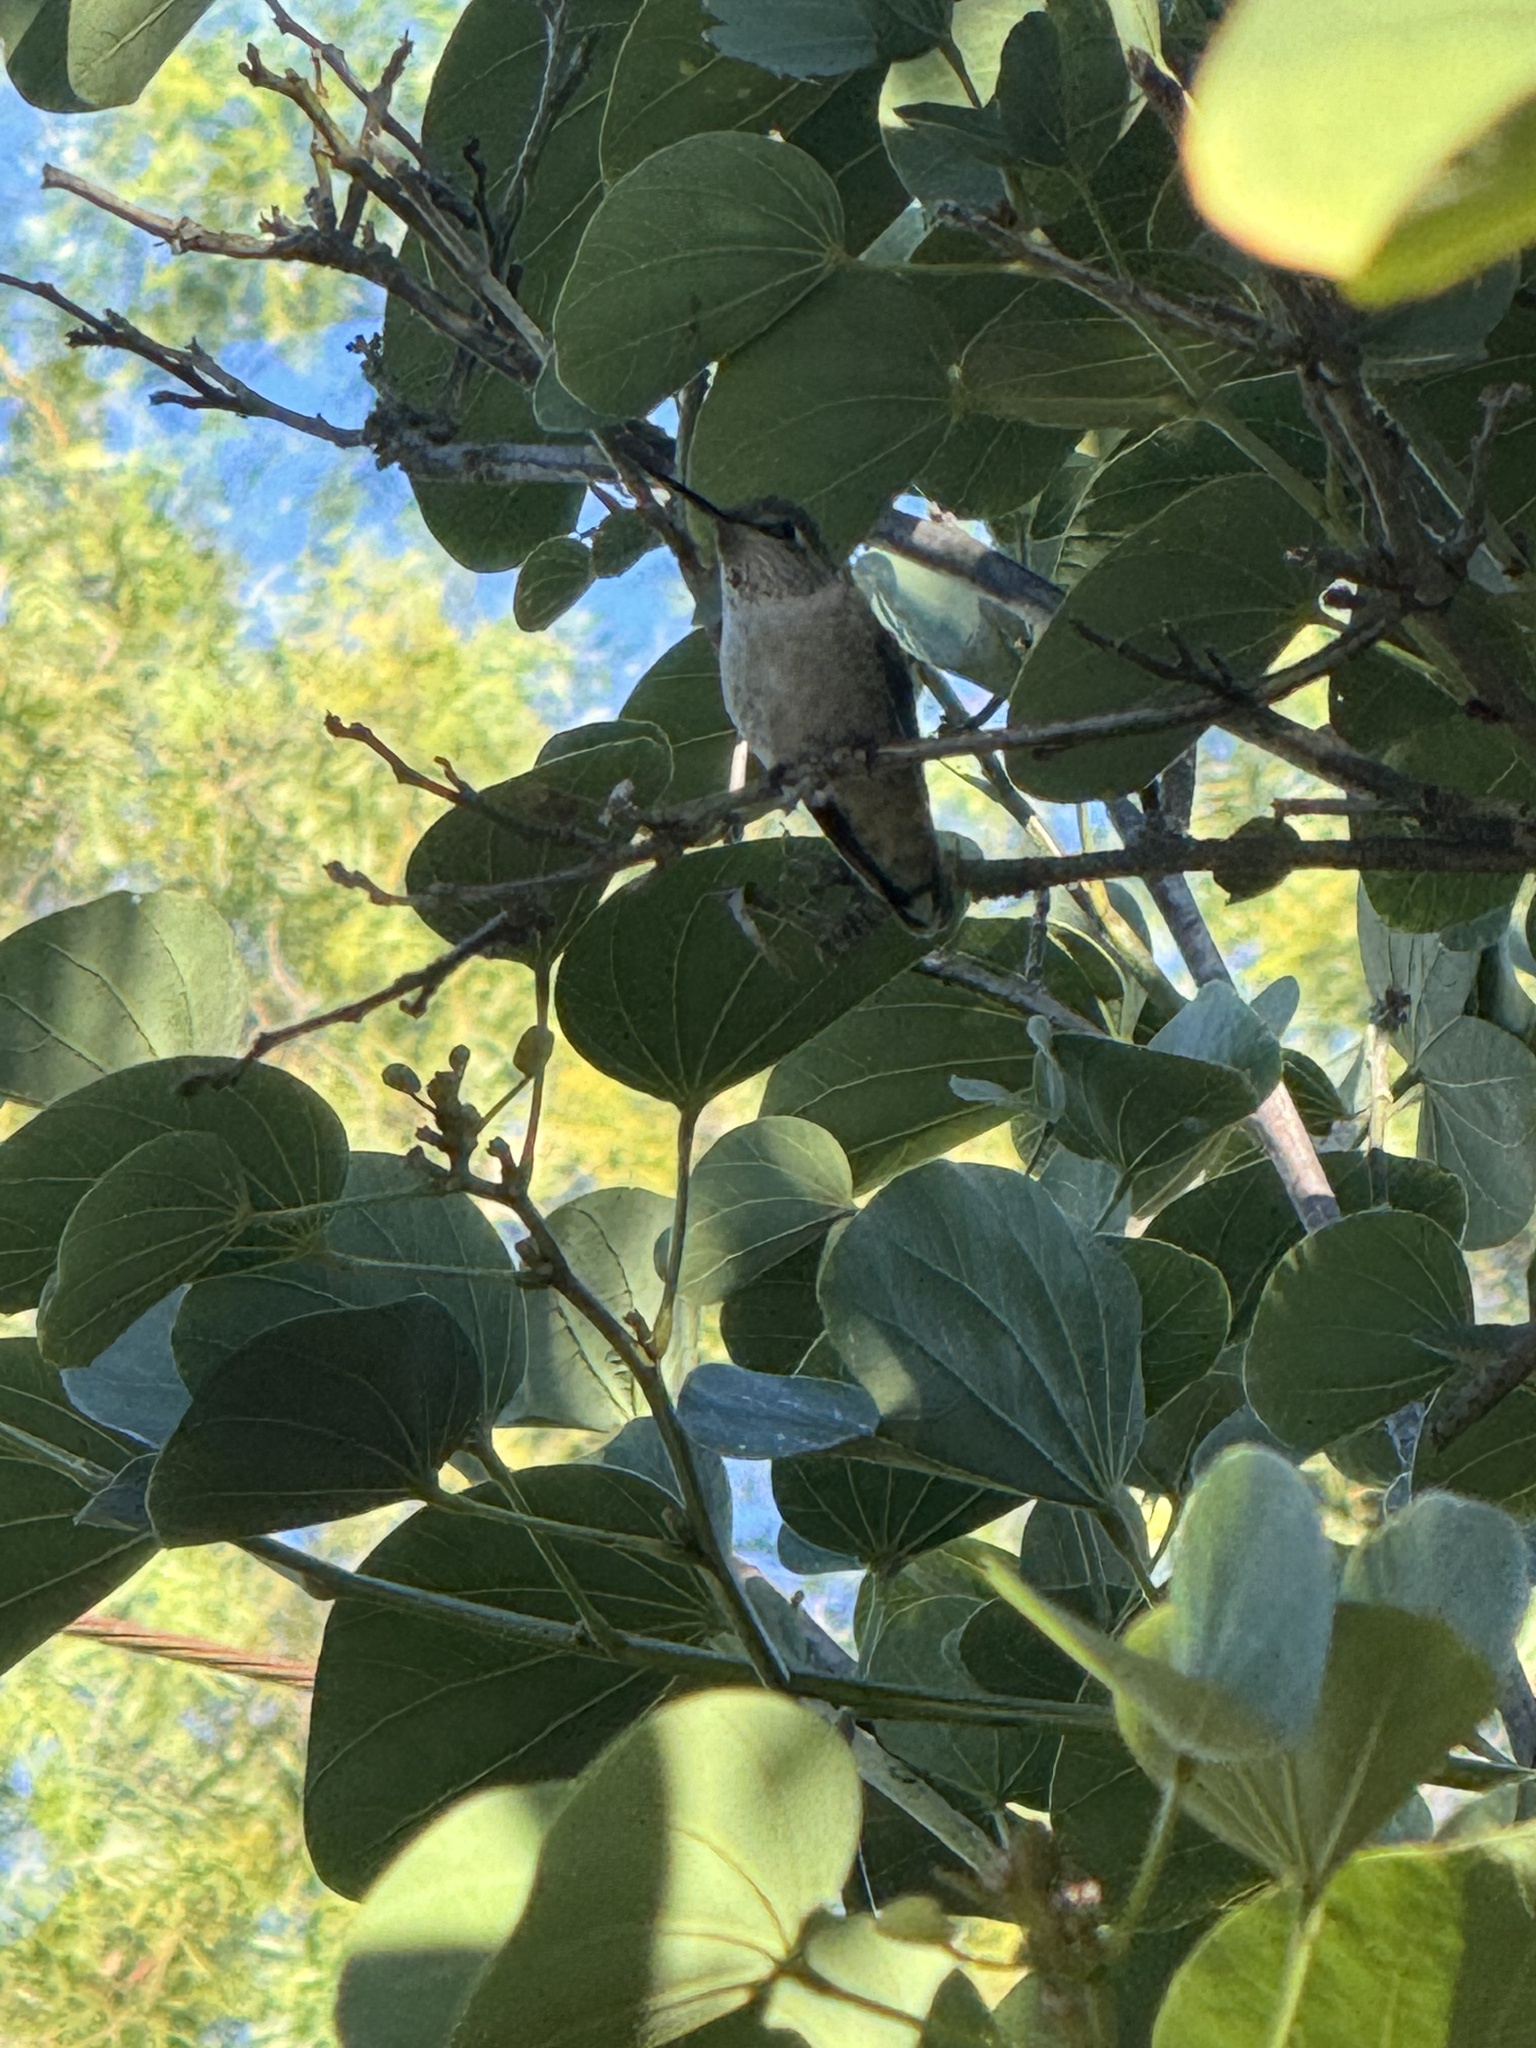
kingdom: Animalia
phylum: Chordata
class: Aves
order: Apodiformes
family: Trochilidae
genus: Calypte
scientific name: Calypte anna
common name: Anna's hummingbird
